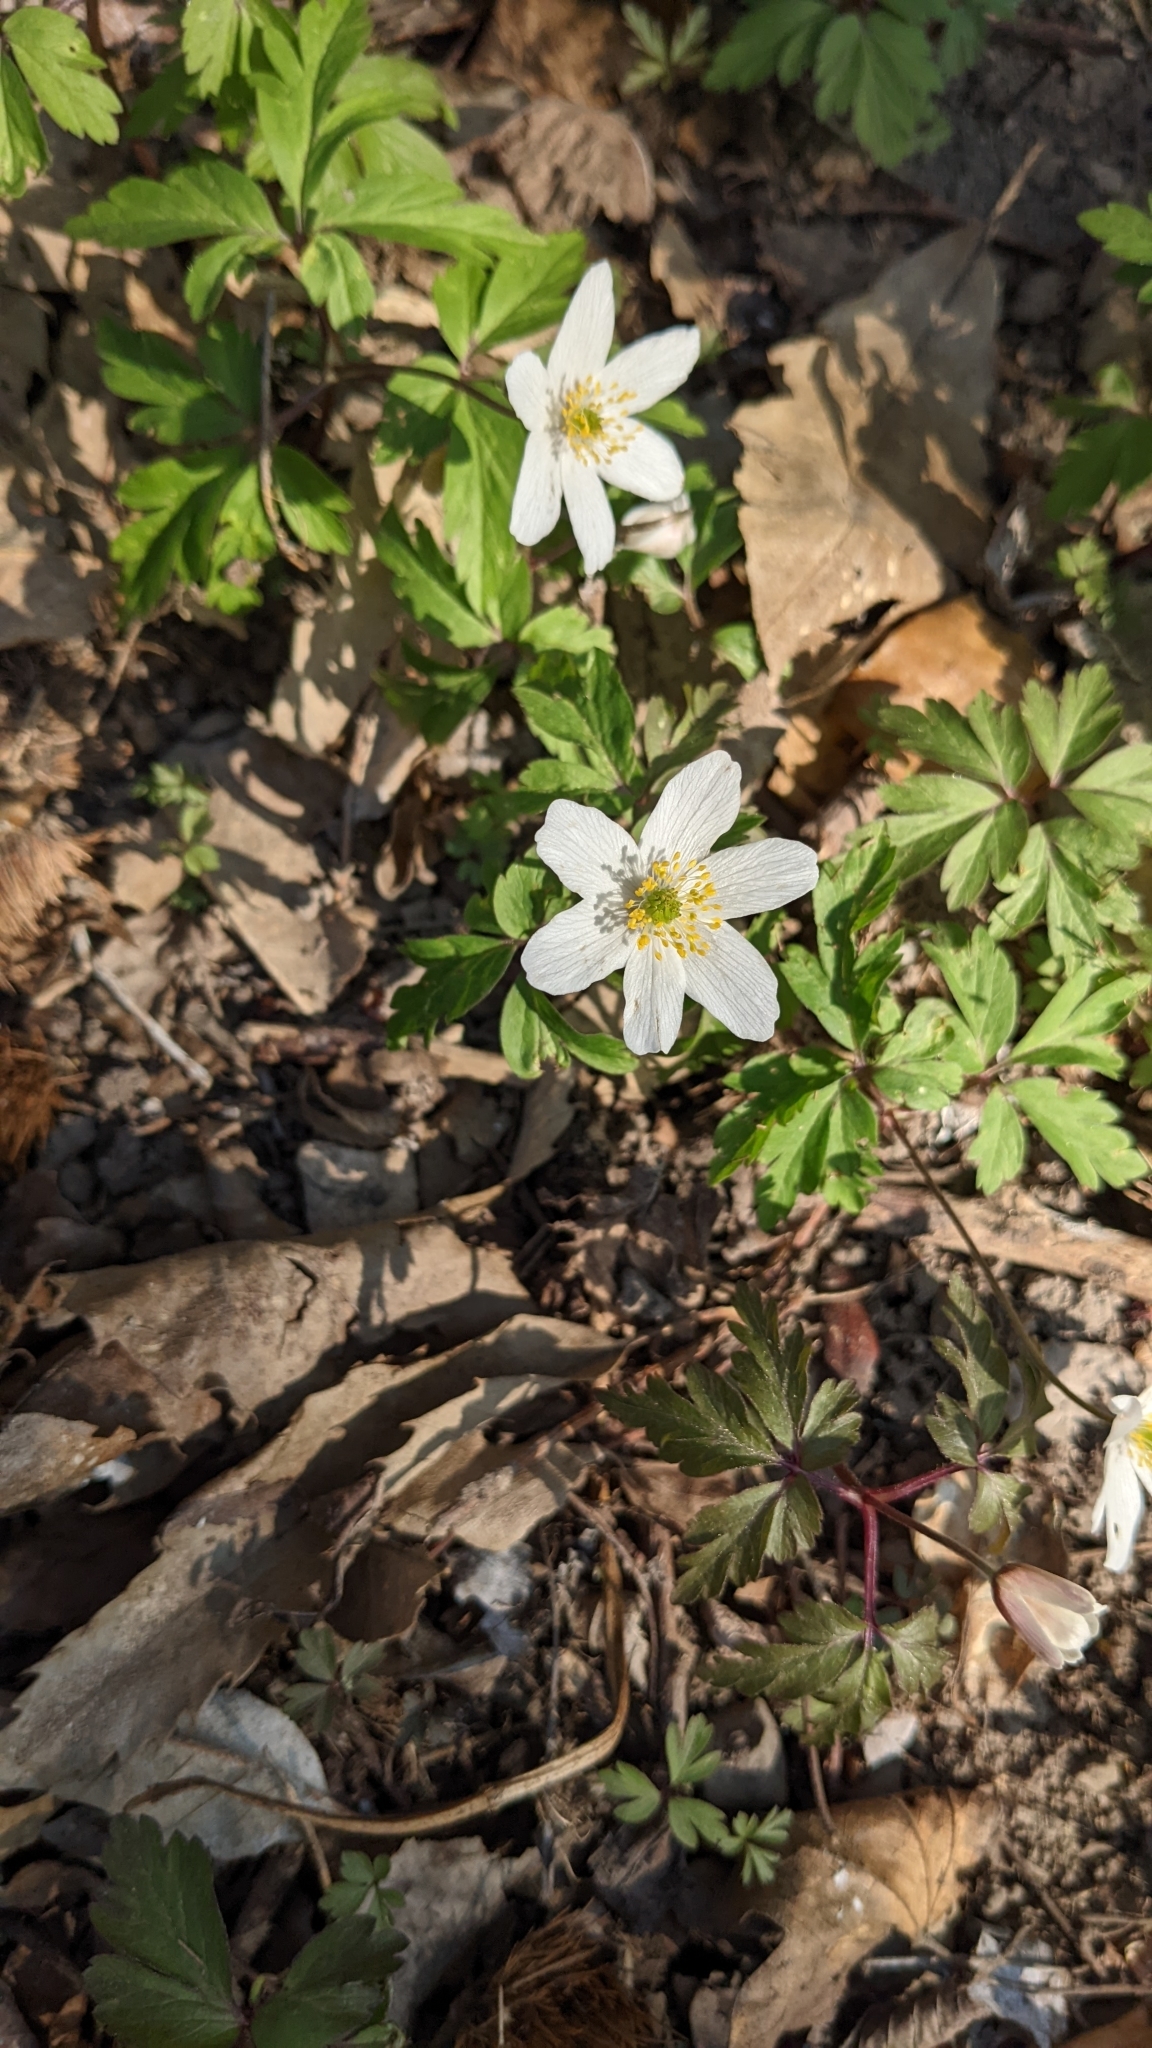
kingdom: Plantae
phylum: Tracheophyta
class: Magnoliopsida
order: Ranunculales
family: Ranunculaceae
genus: Anemone
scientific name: Anemone nemorosa
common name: Wood anemone
